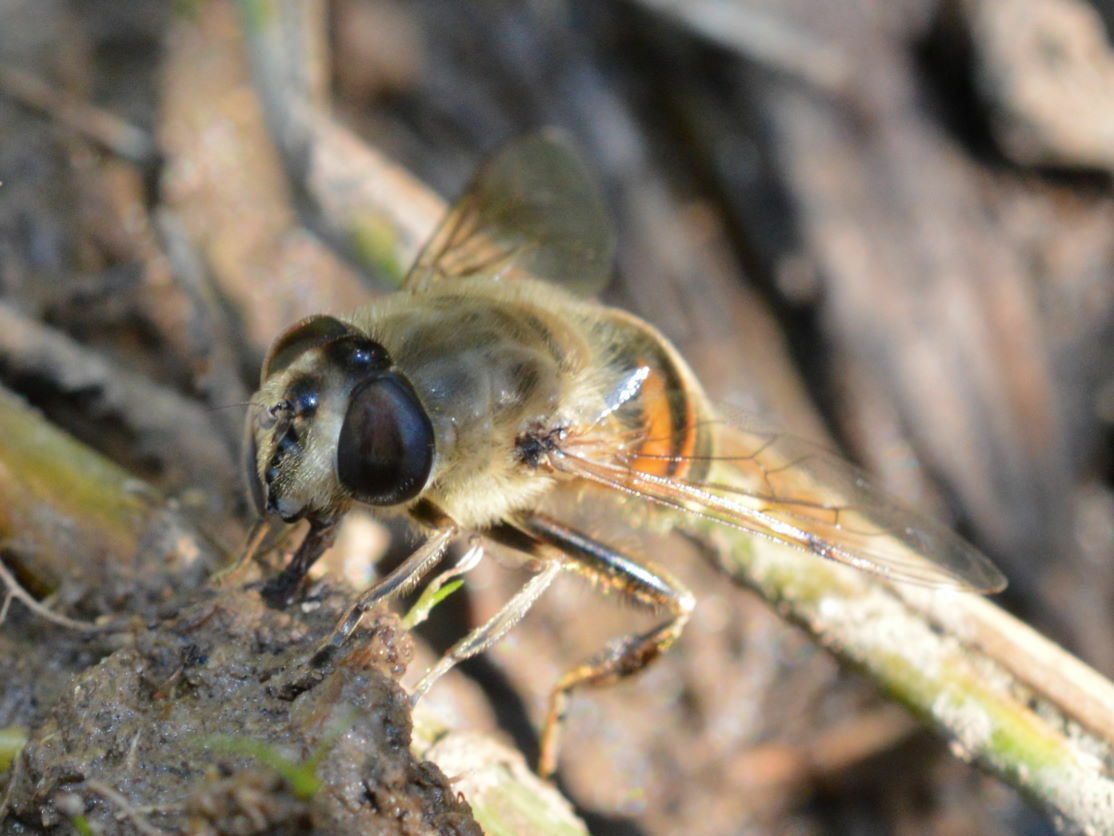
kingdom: Animalia
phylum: Arthropoda
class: Insecta
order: Diptera
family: Syrphidae
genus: Eristalis
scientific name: Eristalis tenax
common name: Drone fly
